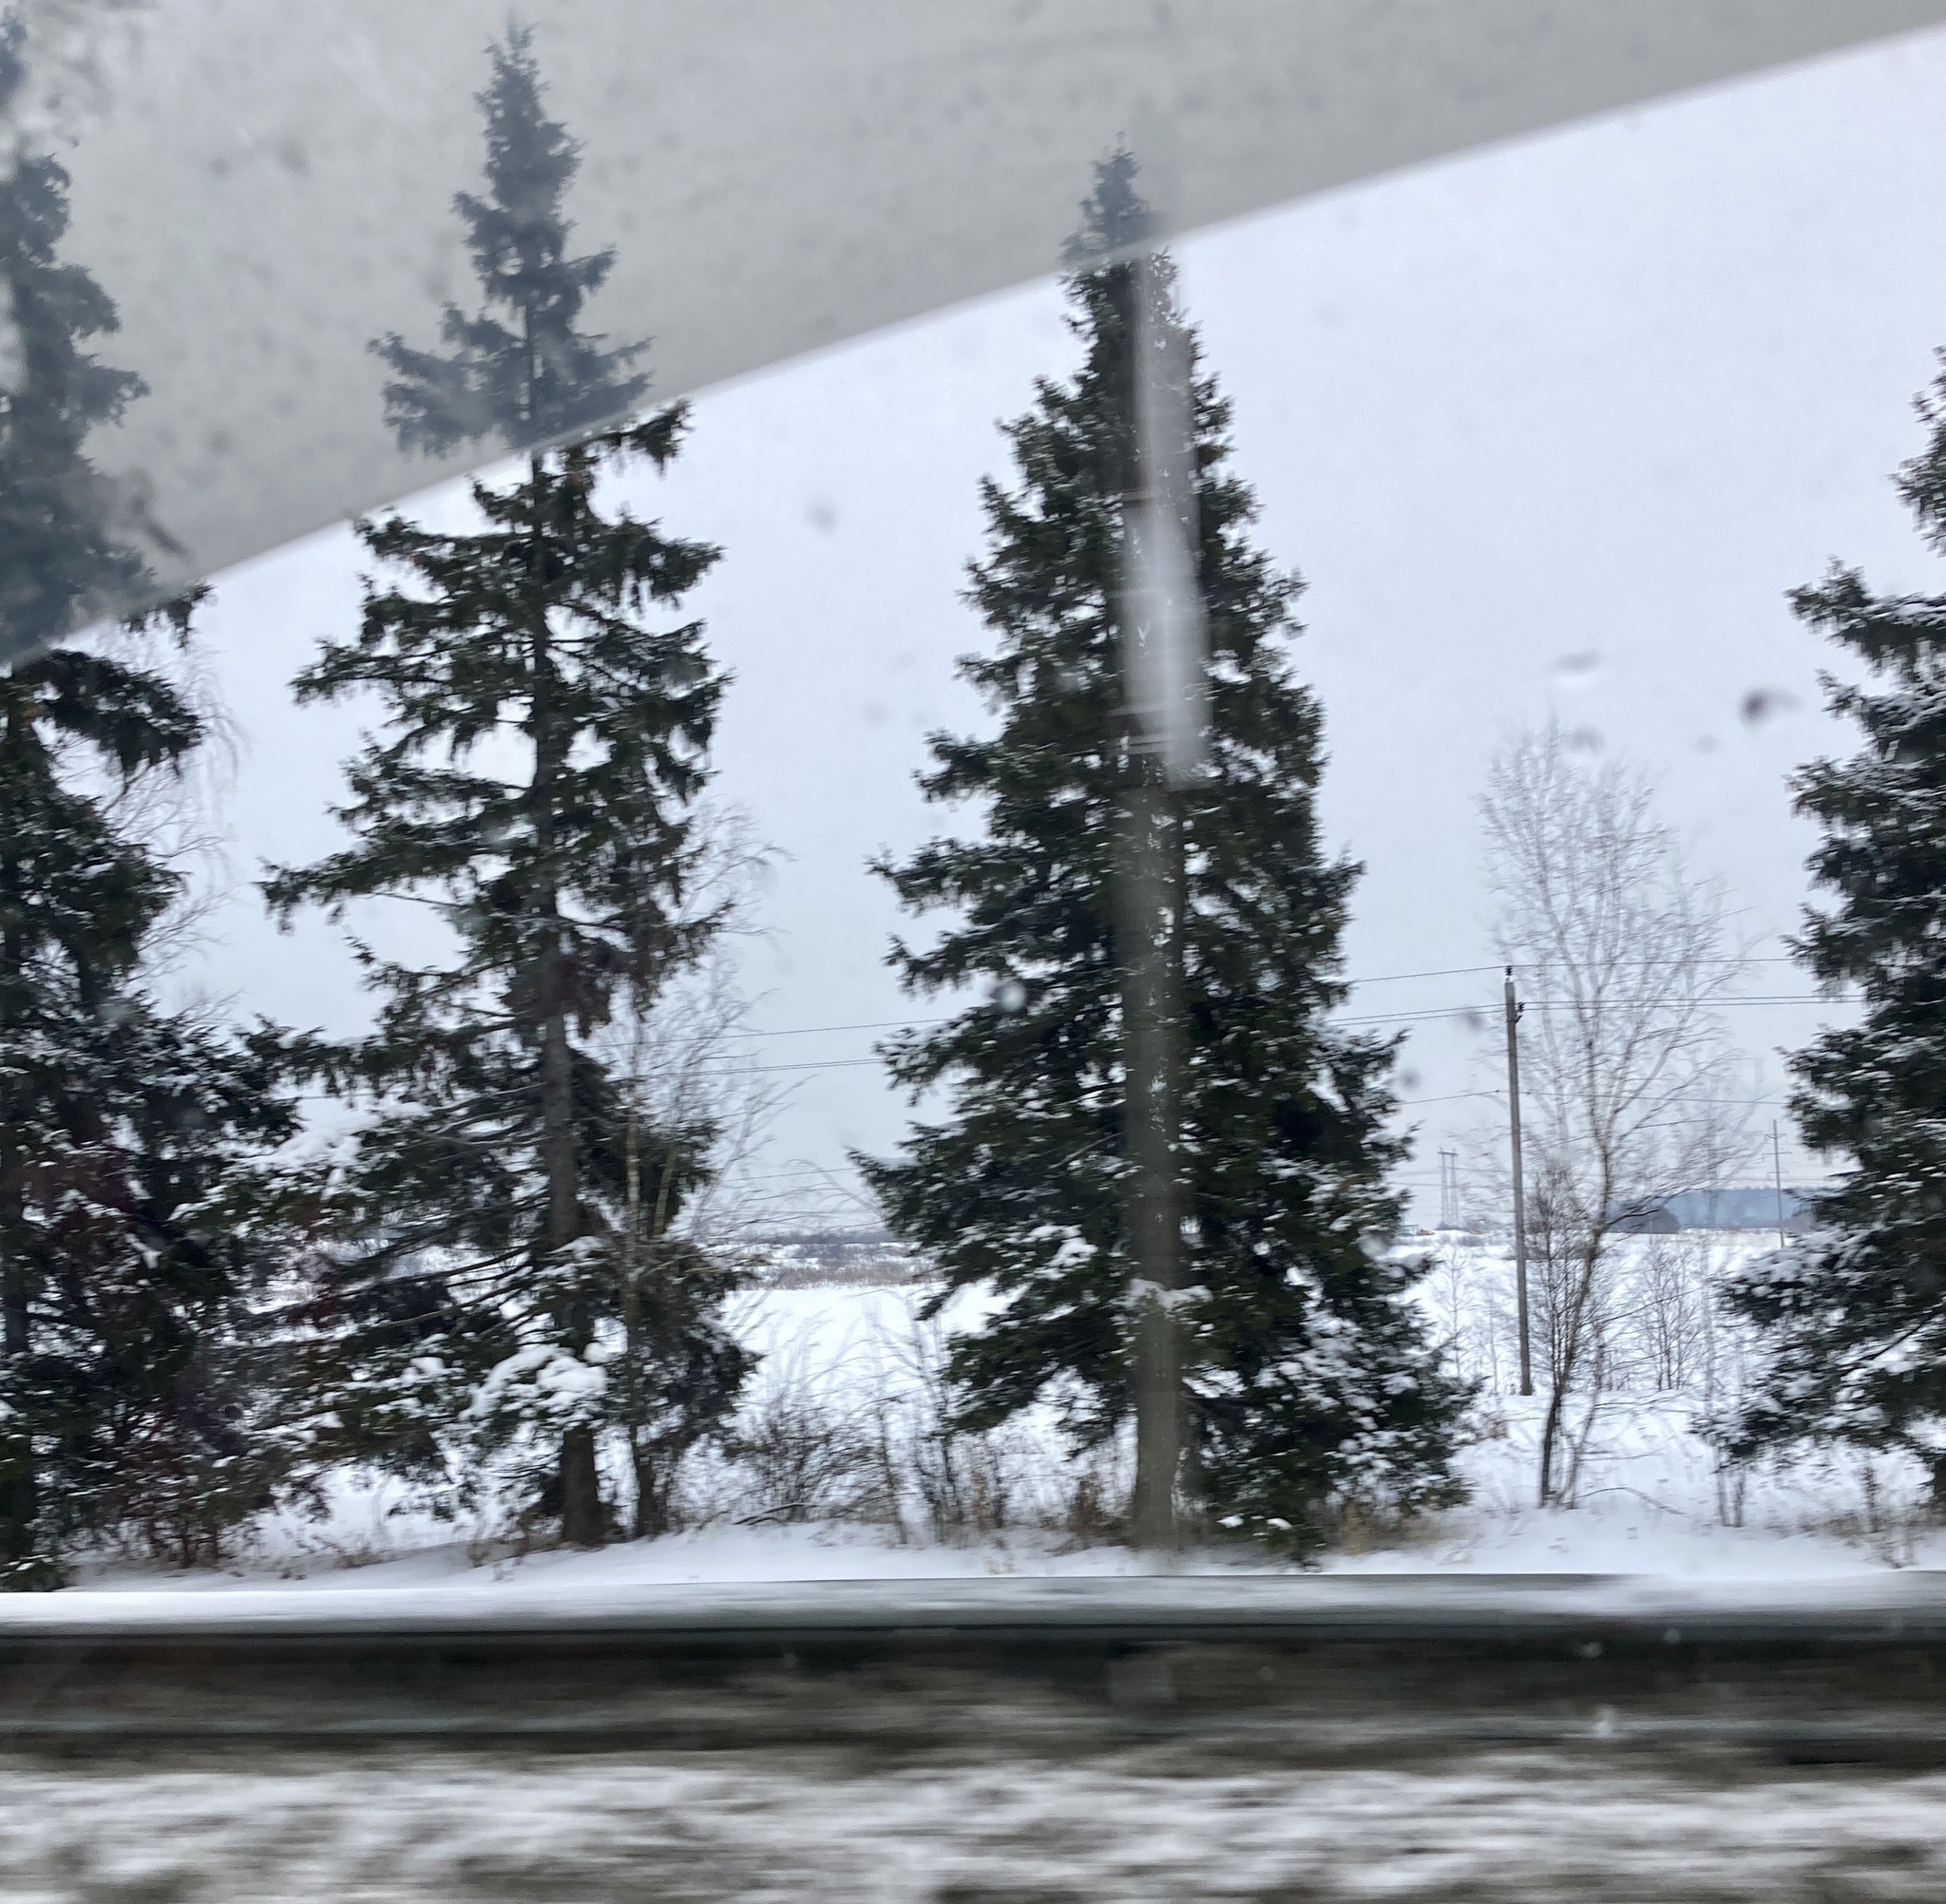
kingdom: Plantae
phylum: Tracheophyta
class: Pinopsida
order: Pinales
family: Pinaceae
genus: Picea
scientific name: Picea abies
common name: Norway spruce
